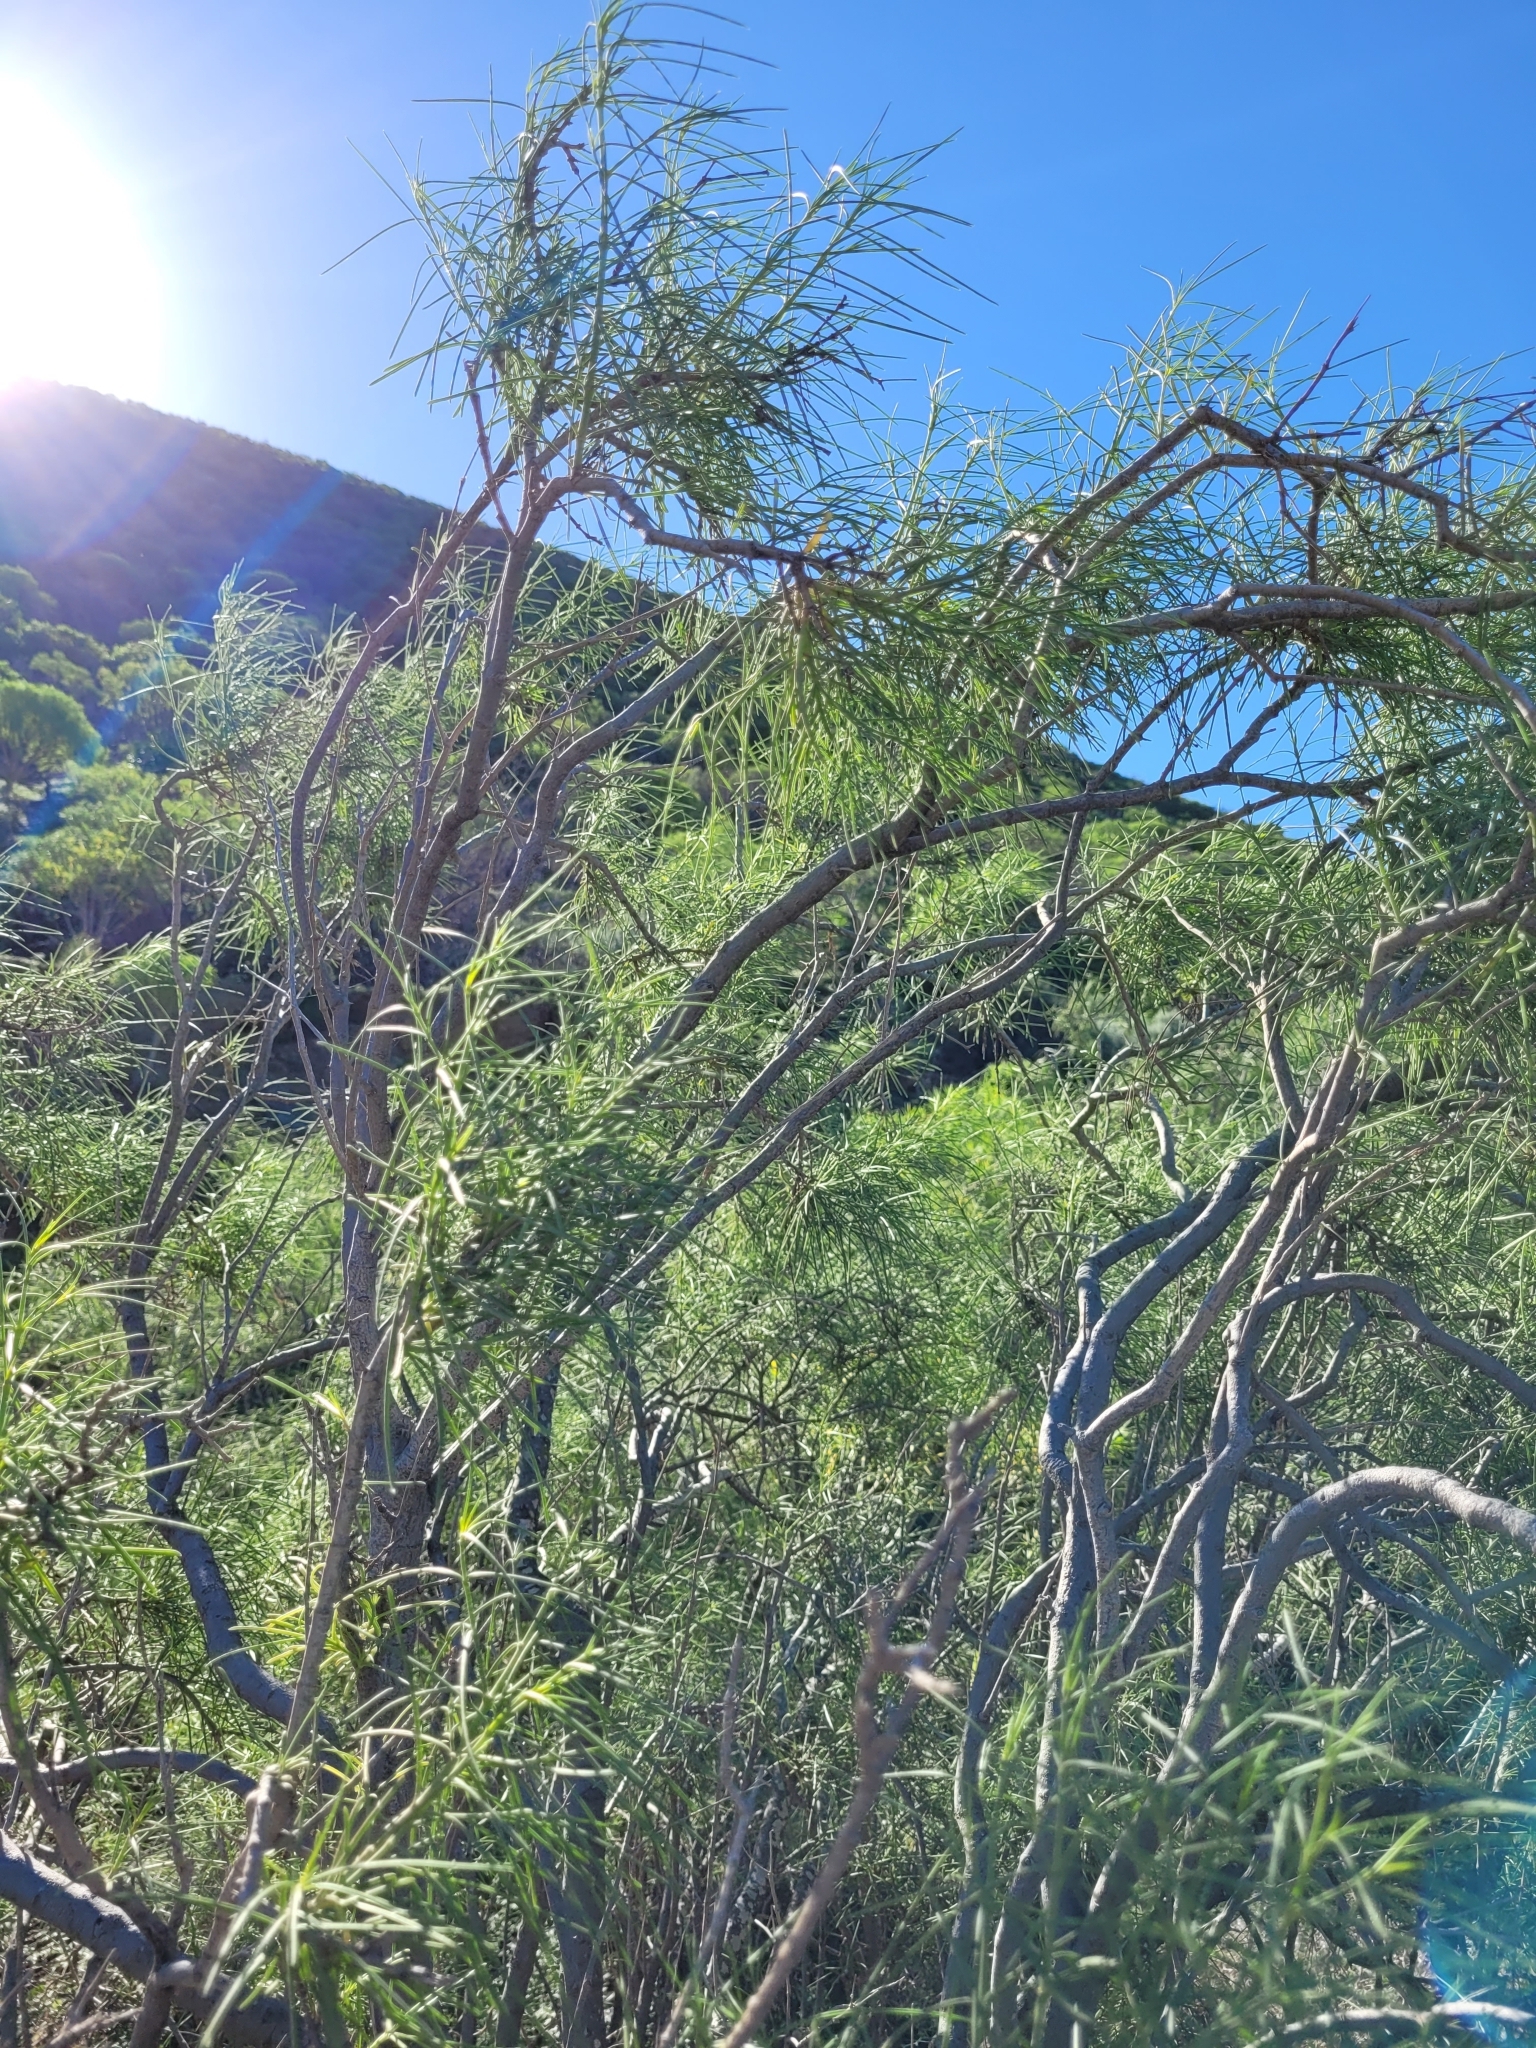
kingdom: Plantae
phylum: Tracheophyta
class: Magnoliopsida
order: Gentianales
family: Rubiaceae
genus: Plocama
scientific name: Plocama pendula
